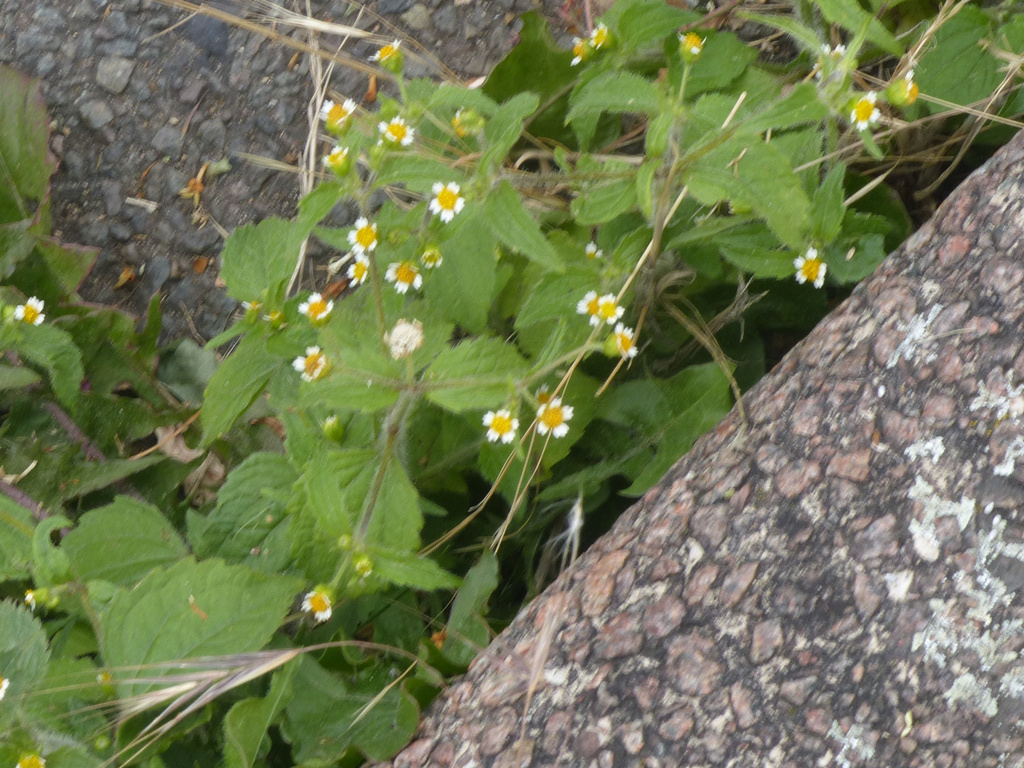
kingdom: Plantae
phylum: Tracheophyta
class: Magnoliopsida
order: Asterales
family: Asteraceae
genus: Galinsoga
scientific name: Galinsoga quadriradiata
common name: Shaggy soldier
